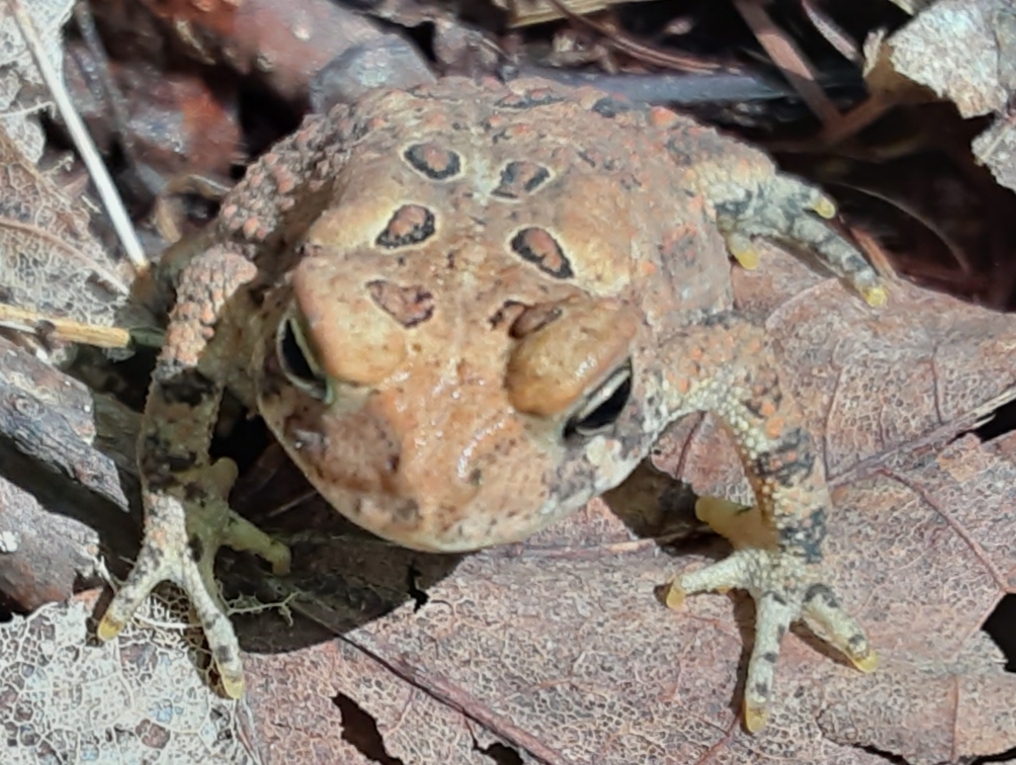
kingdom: Animalia
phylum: Chordata
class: Amphibia
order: Anura
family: Bufonidae
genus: Anaxyrus
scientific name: Anaxyrus americanus
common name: American toad
